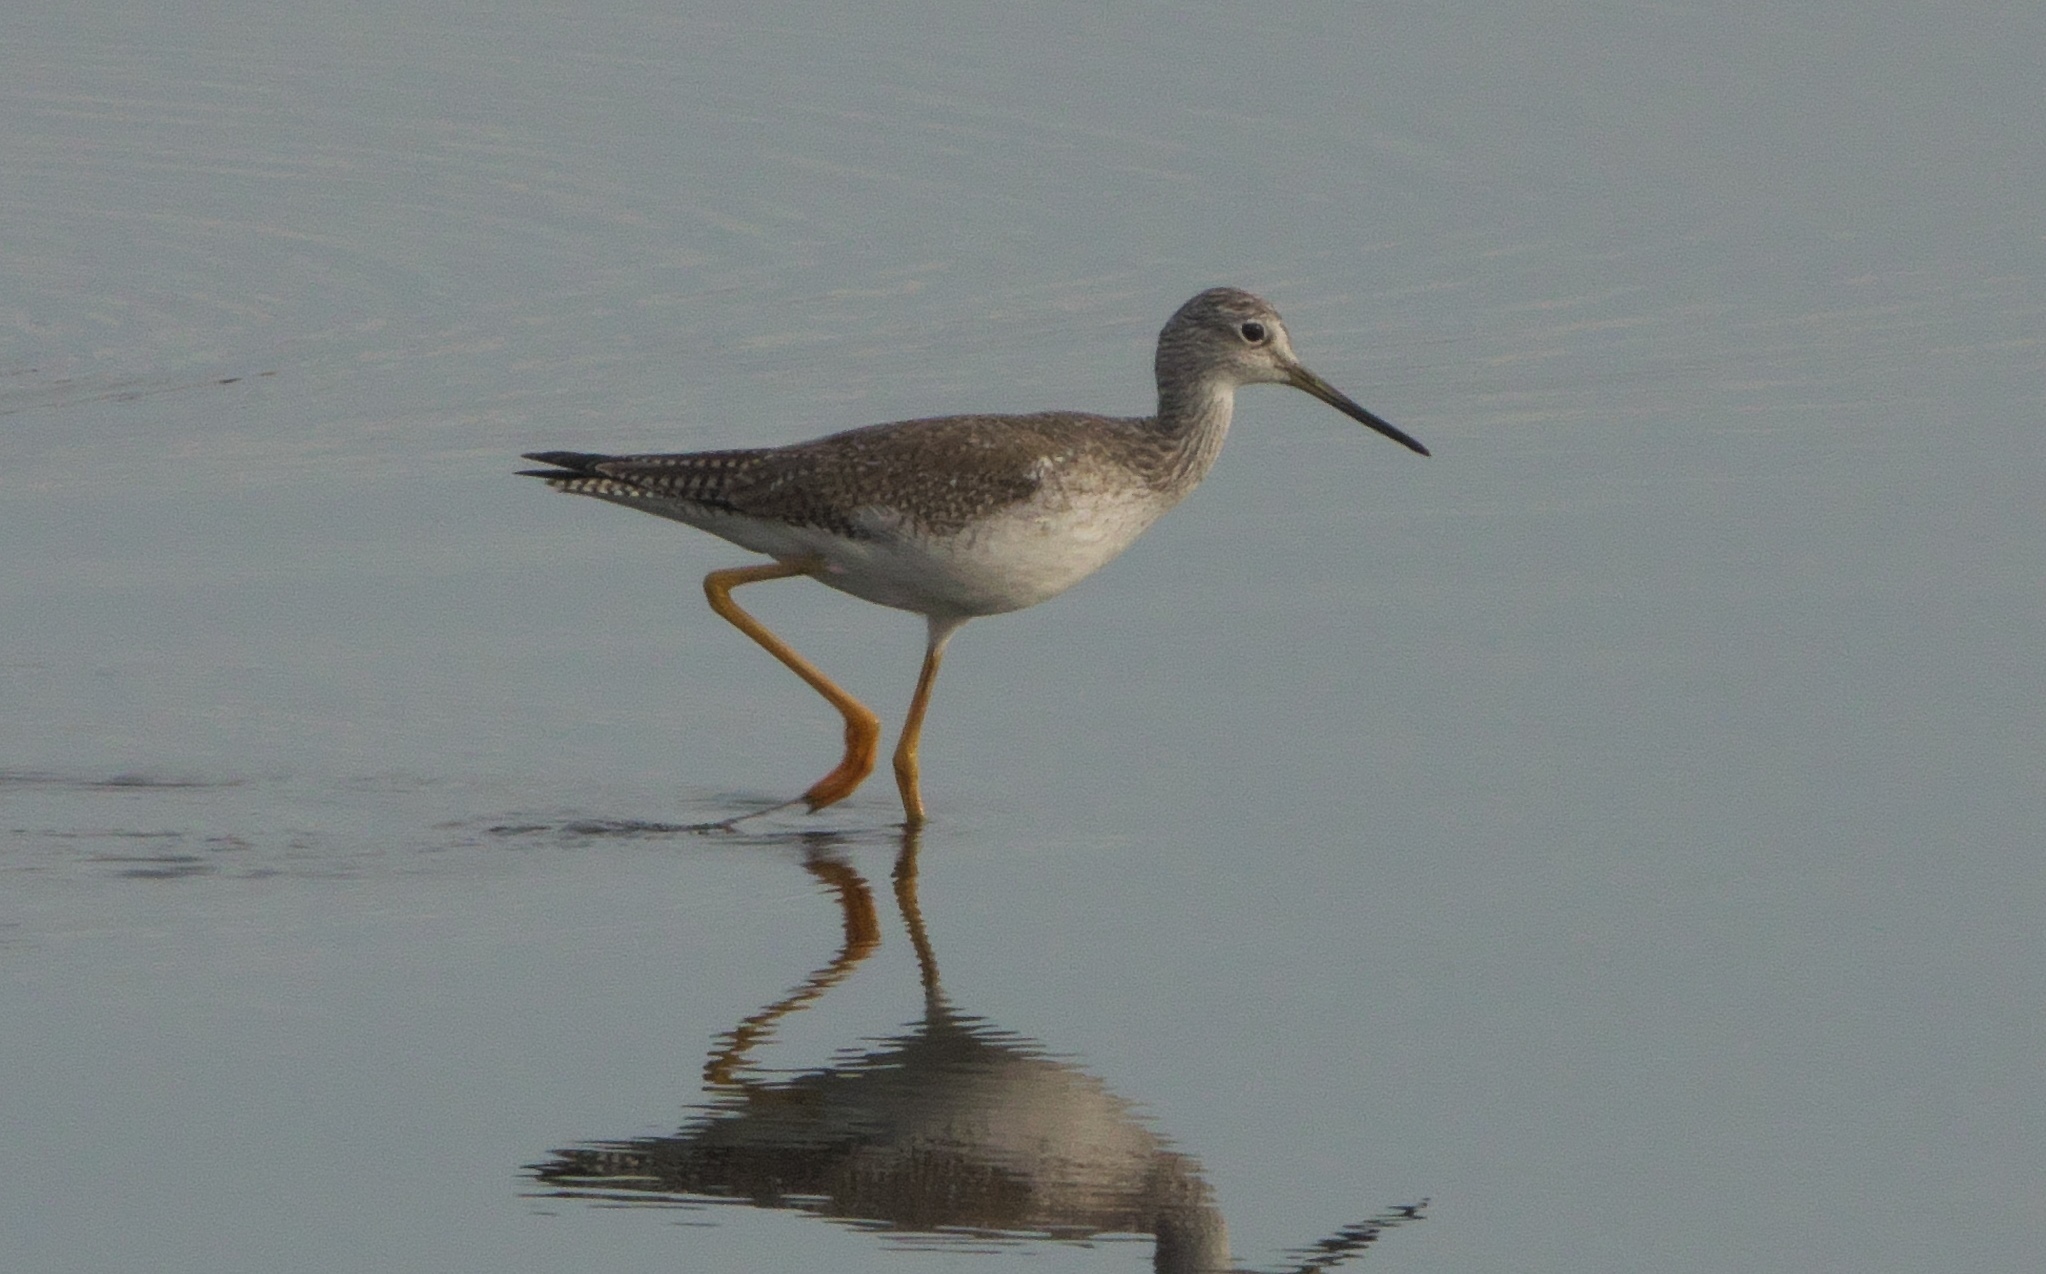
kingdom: Animalia
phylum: Chordata
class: Aves
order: Charadriiformes
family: Scolopacidae
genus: Tringa
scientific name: Tringa melanoleuca
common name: Greater yellowlegs
